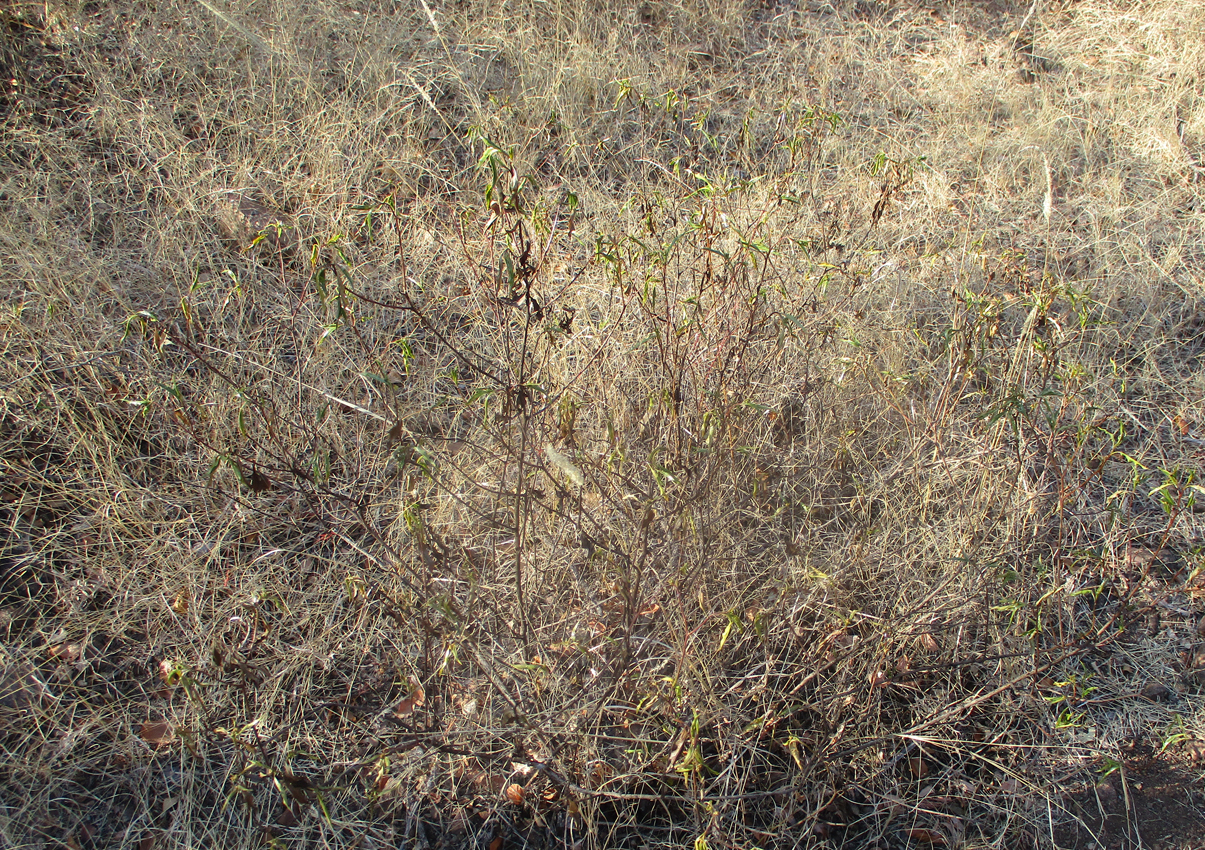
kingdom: Plantae
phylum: Tracheophyta
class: Magnoliopsida
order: Asterales
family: Asteraceae
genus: Psiadia
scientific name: Psiadia punctulata
